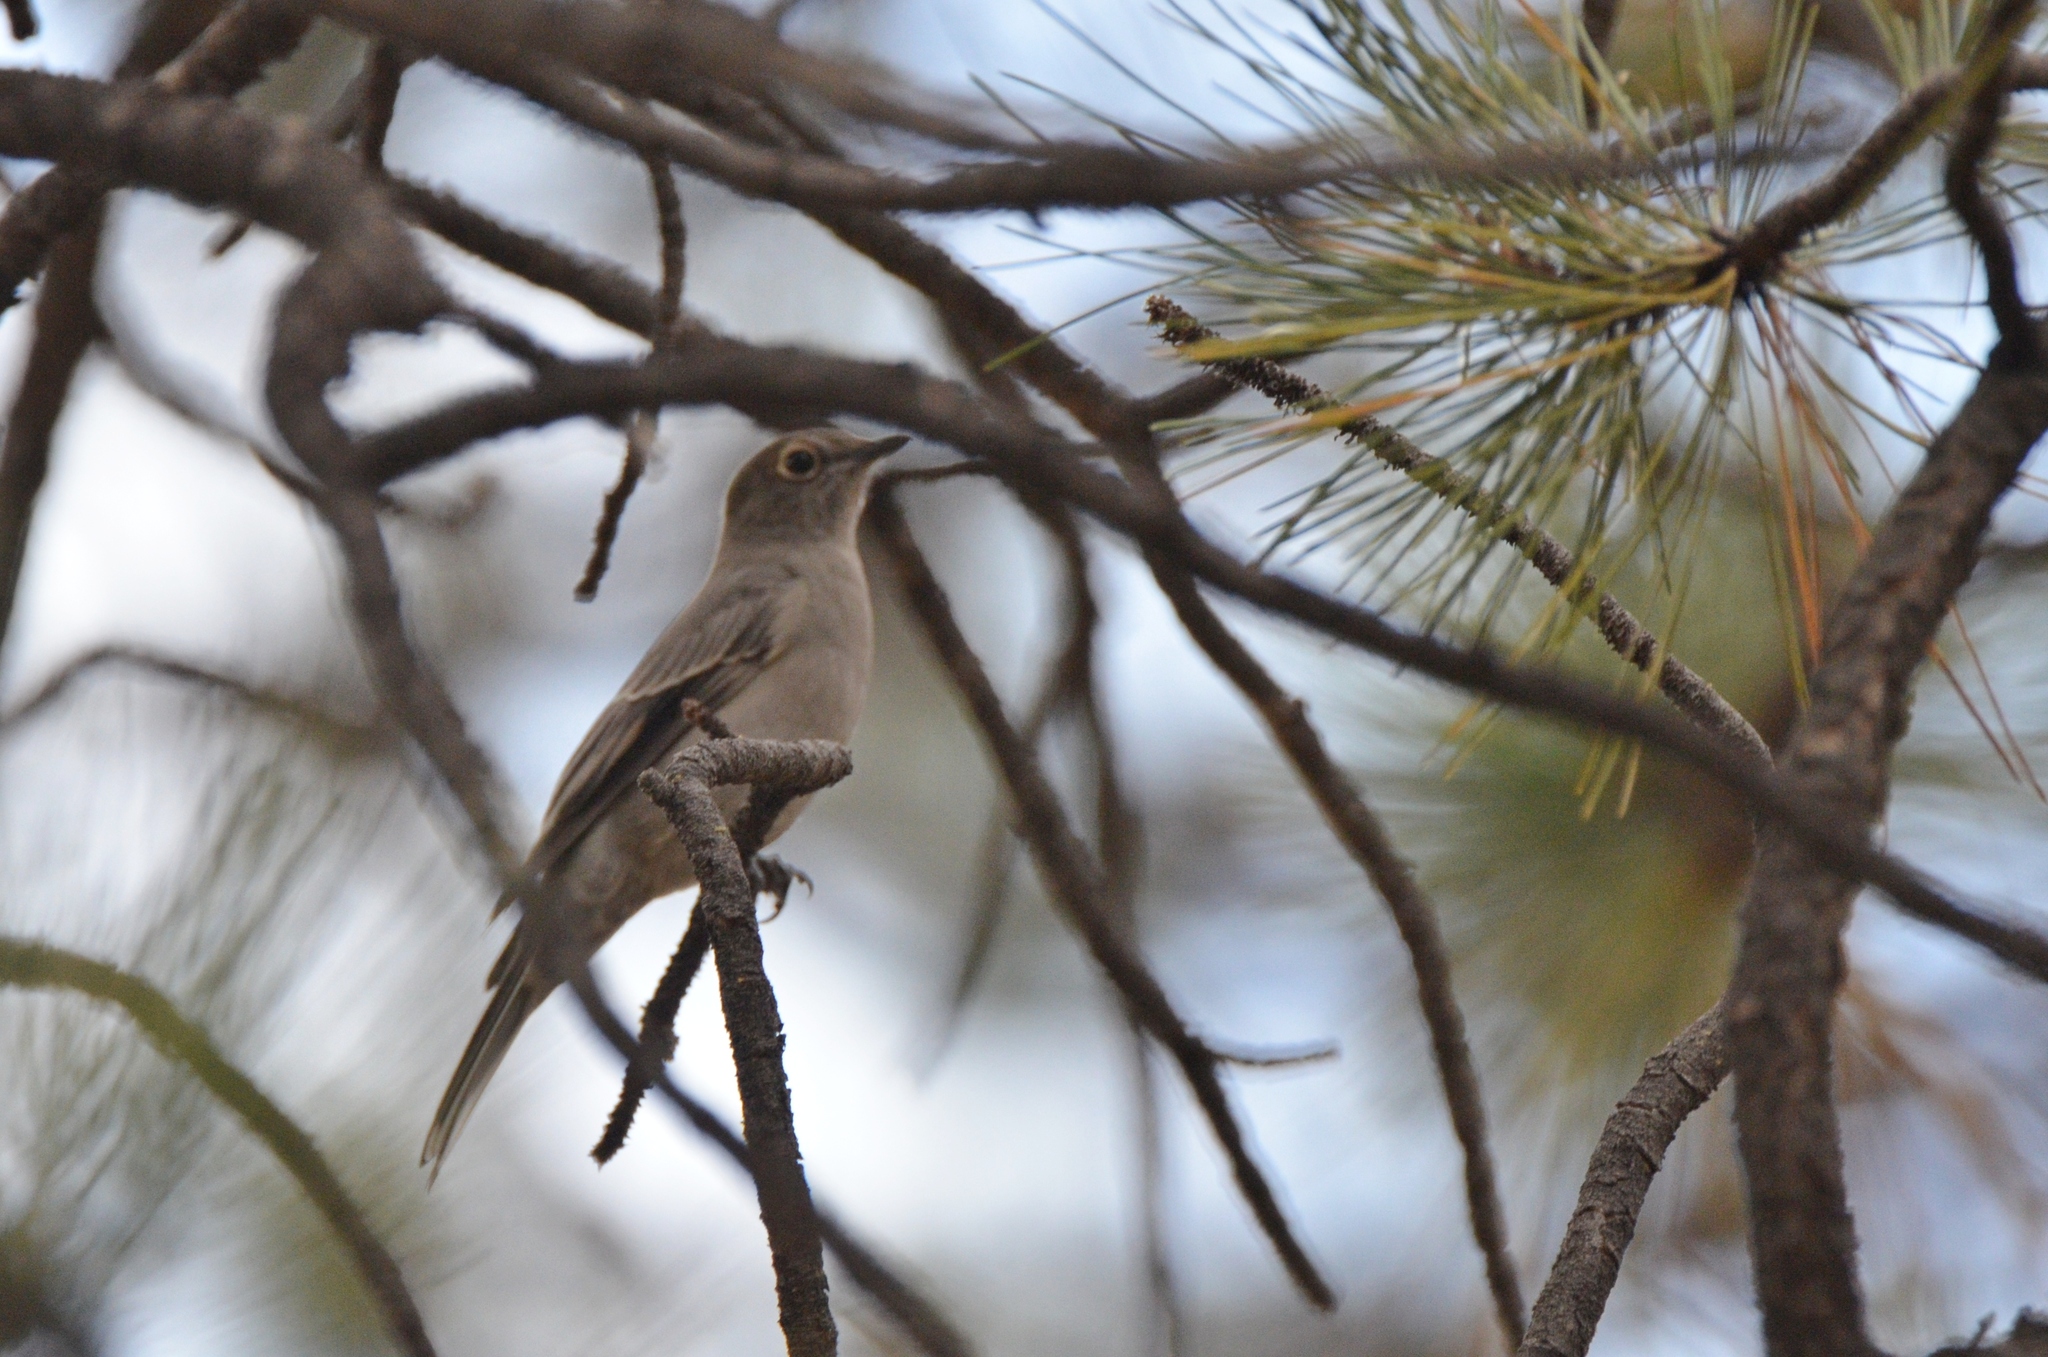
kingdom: Animalia
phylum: Chordata
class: Aves
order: Passeriformes
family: Turdidae
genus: Myadestes
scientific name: Myadestes townsendi
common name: Townsend's solitaire
